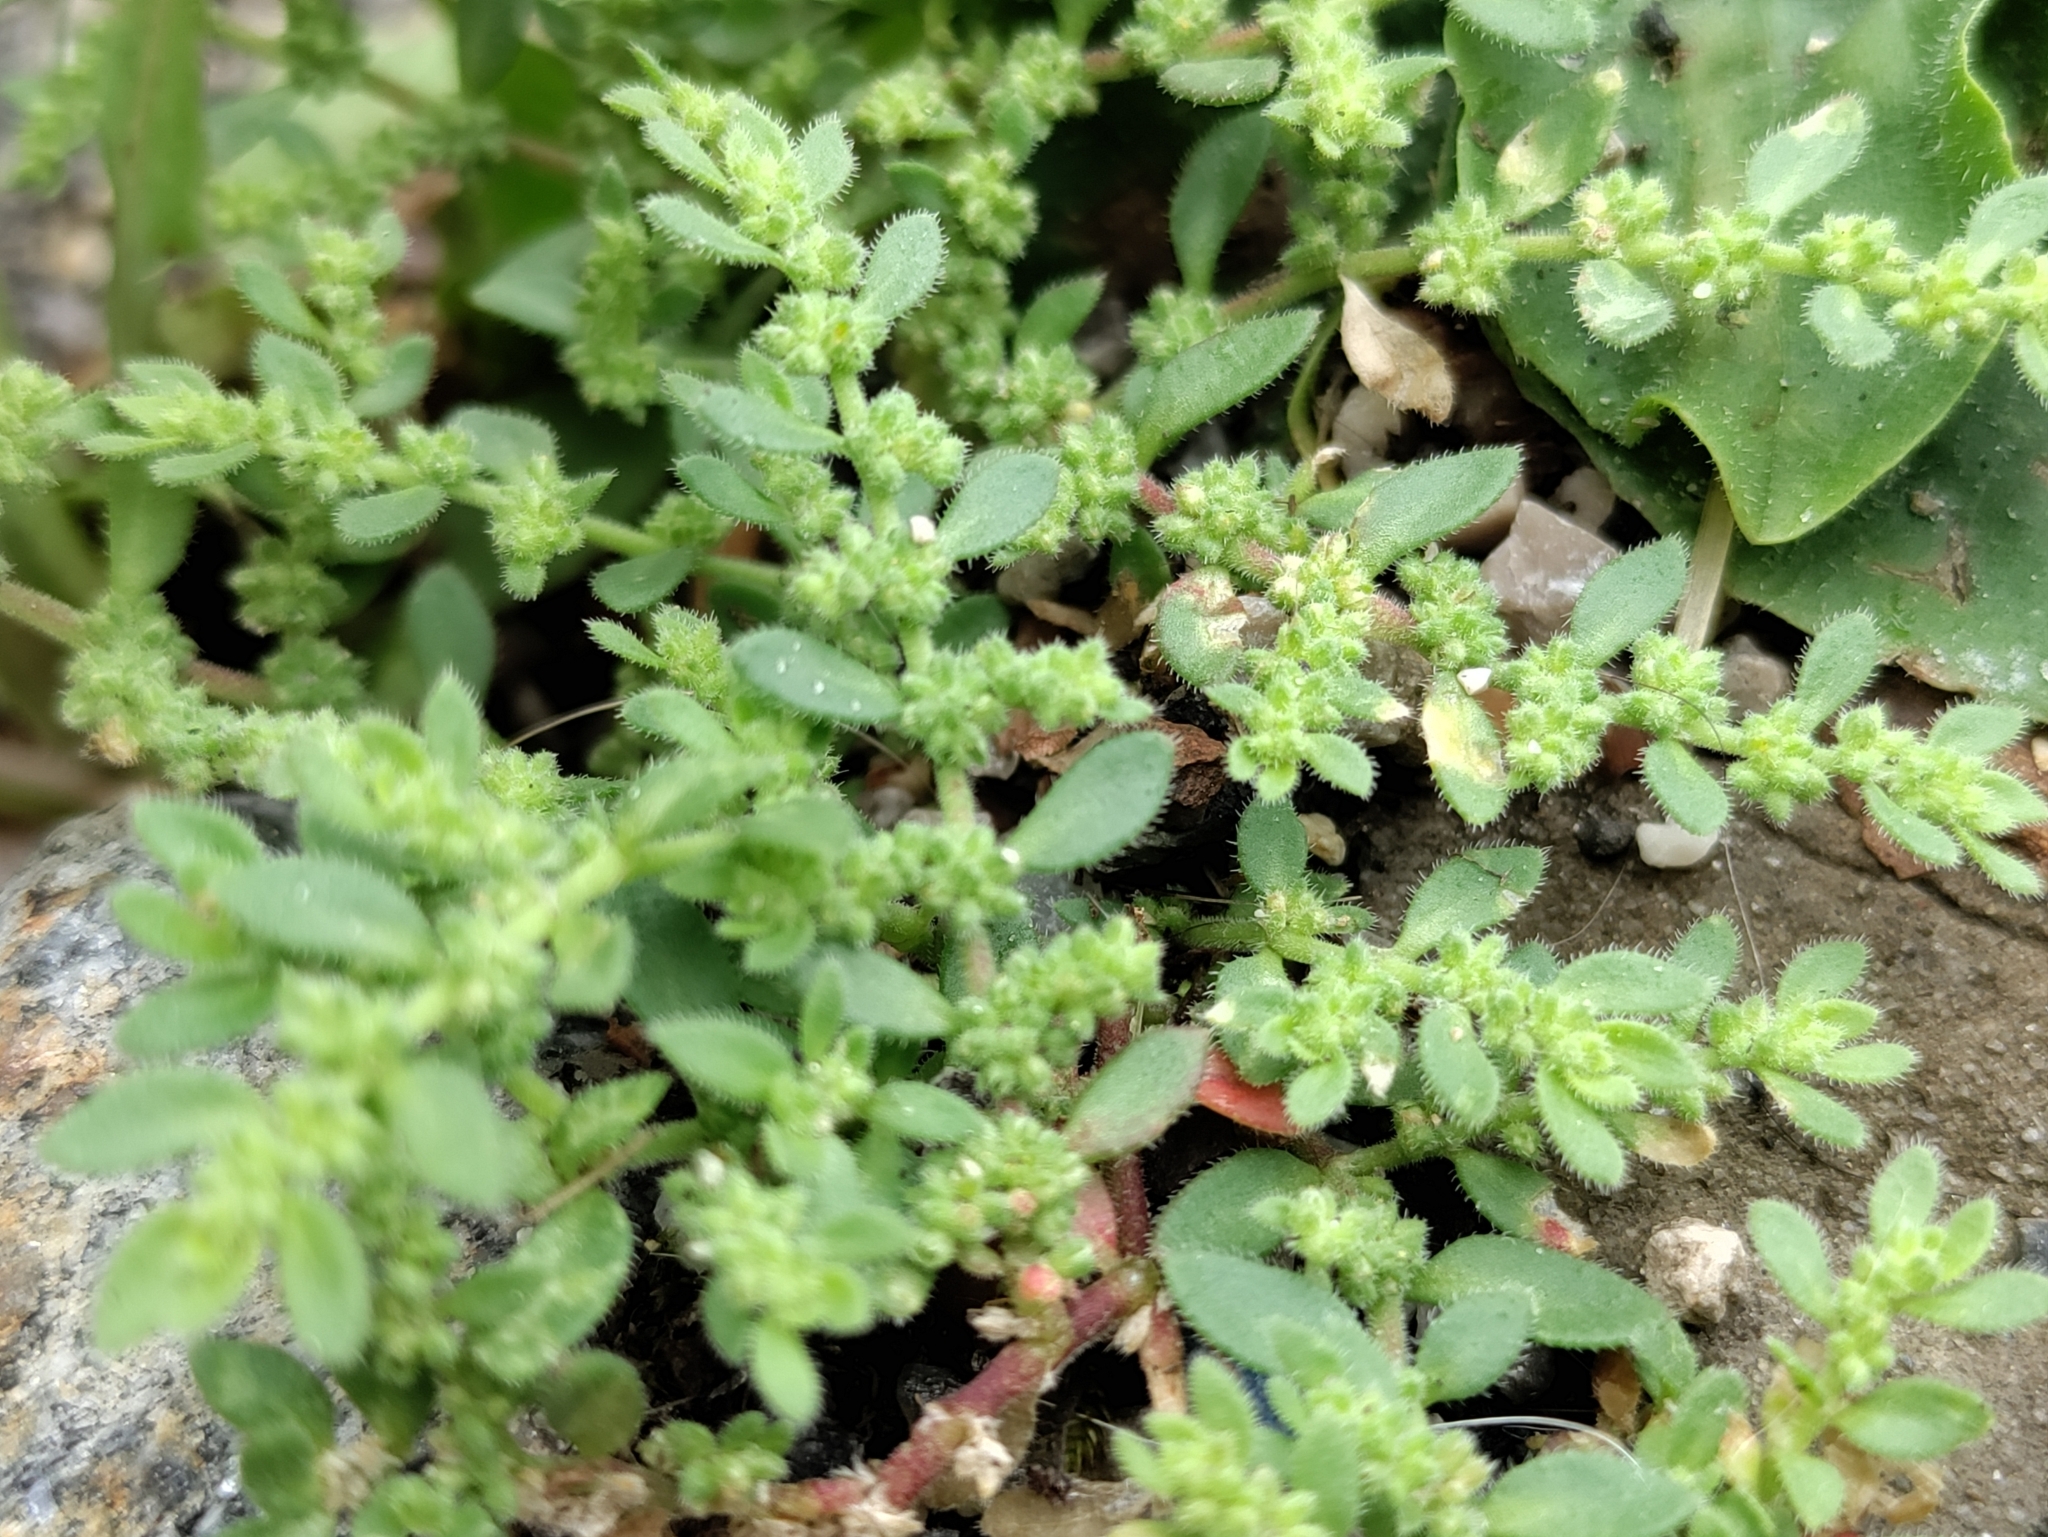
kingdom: Plantae
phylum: Tracheophyta
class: Magnoliopsida
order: Caryophyllales
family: Caryophyllaceae
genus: Herniaria
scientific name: Herniaria hirsuta
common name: Hairy rupturewort
